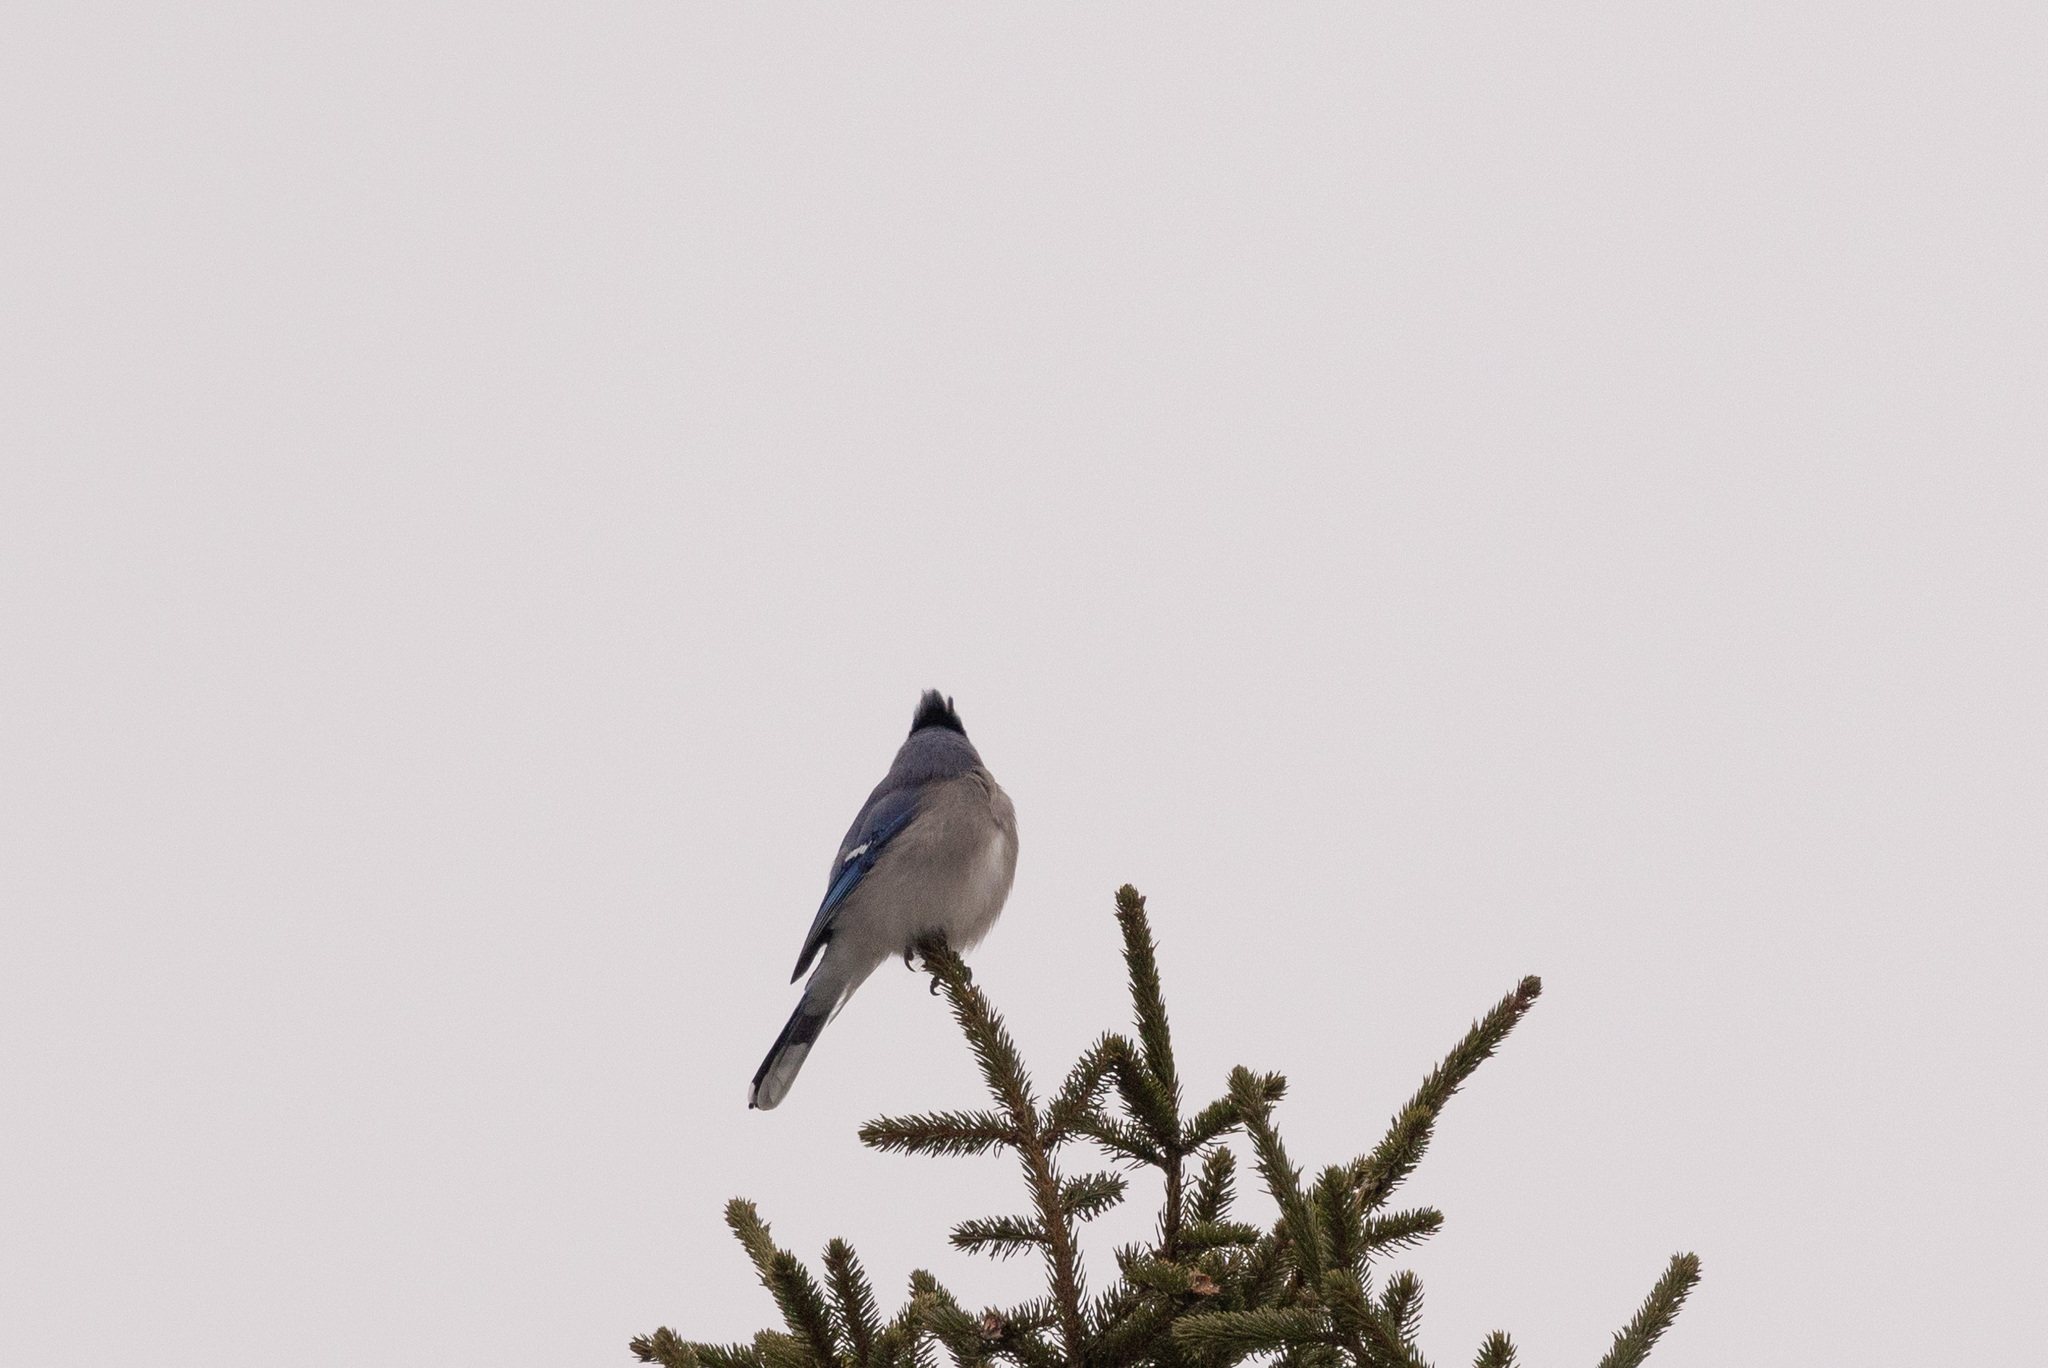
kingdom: Animalia
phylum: Chordata
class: Aves
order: Passeriformes
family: Corvidae
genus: Cyanocitta
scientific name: Cyanocitta cristata
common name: Blue jay
